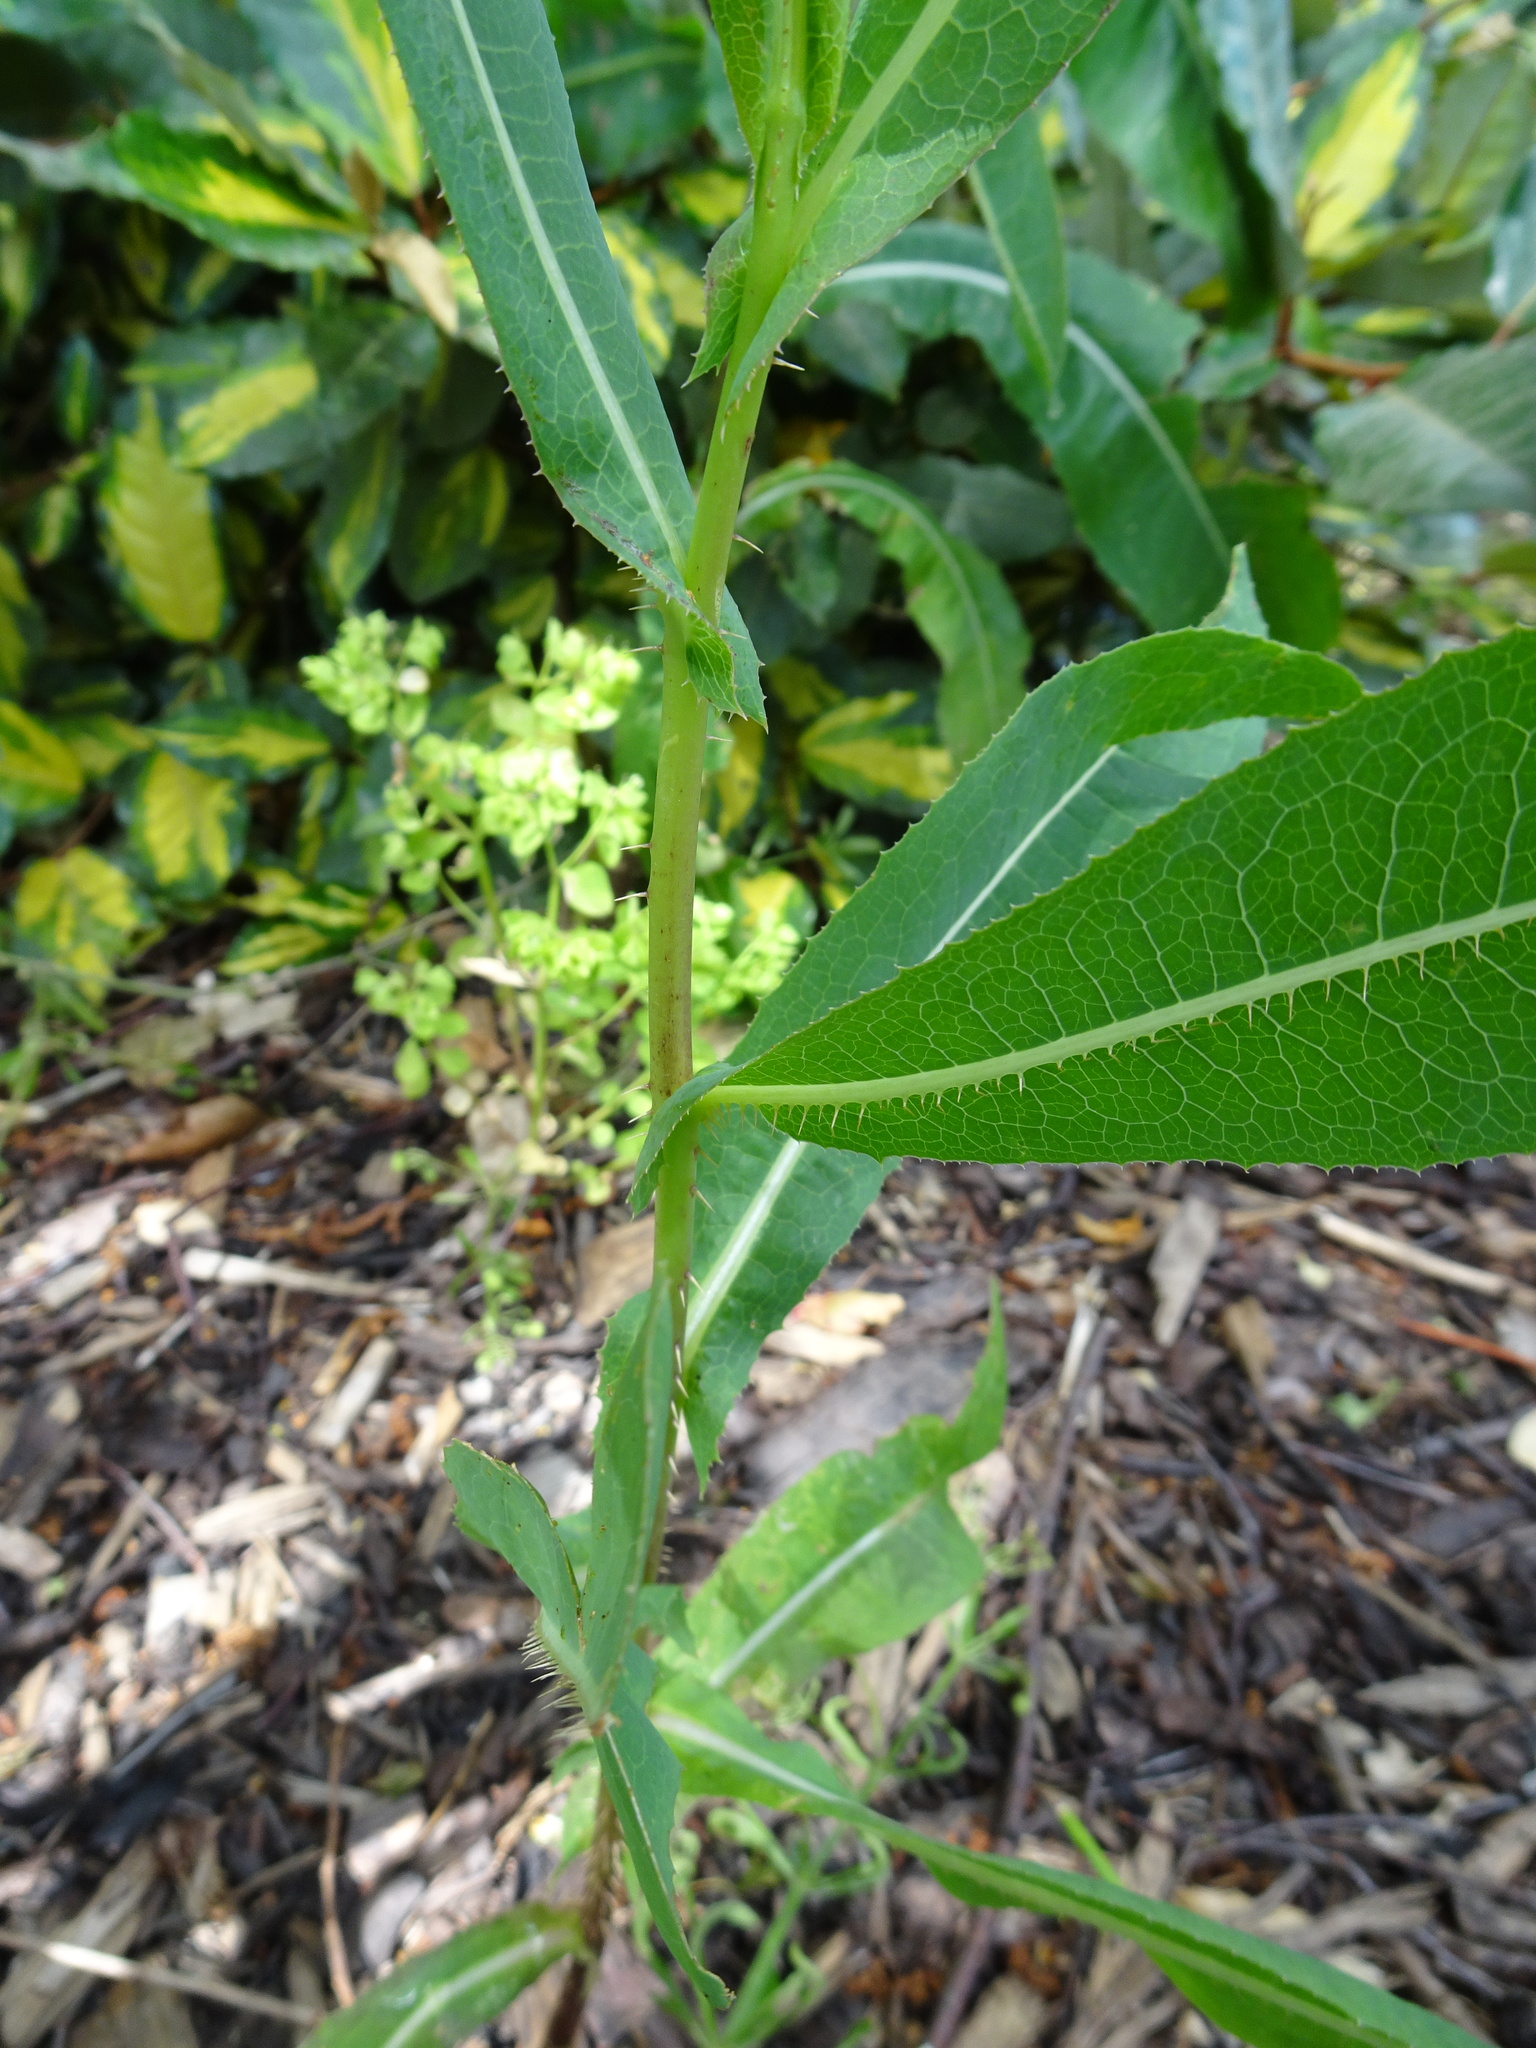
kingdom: Plantae
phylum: Tracheophyta
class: Magnoliopsida
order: Asterales
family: Asteraceae
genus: Lactuca
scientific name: Lactuca serriola
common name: Prickly lettuce
